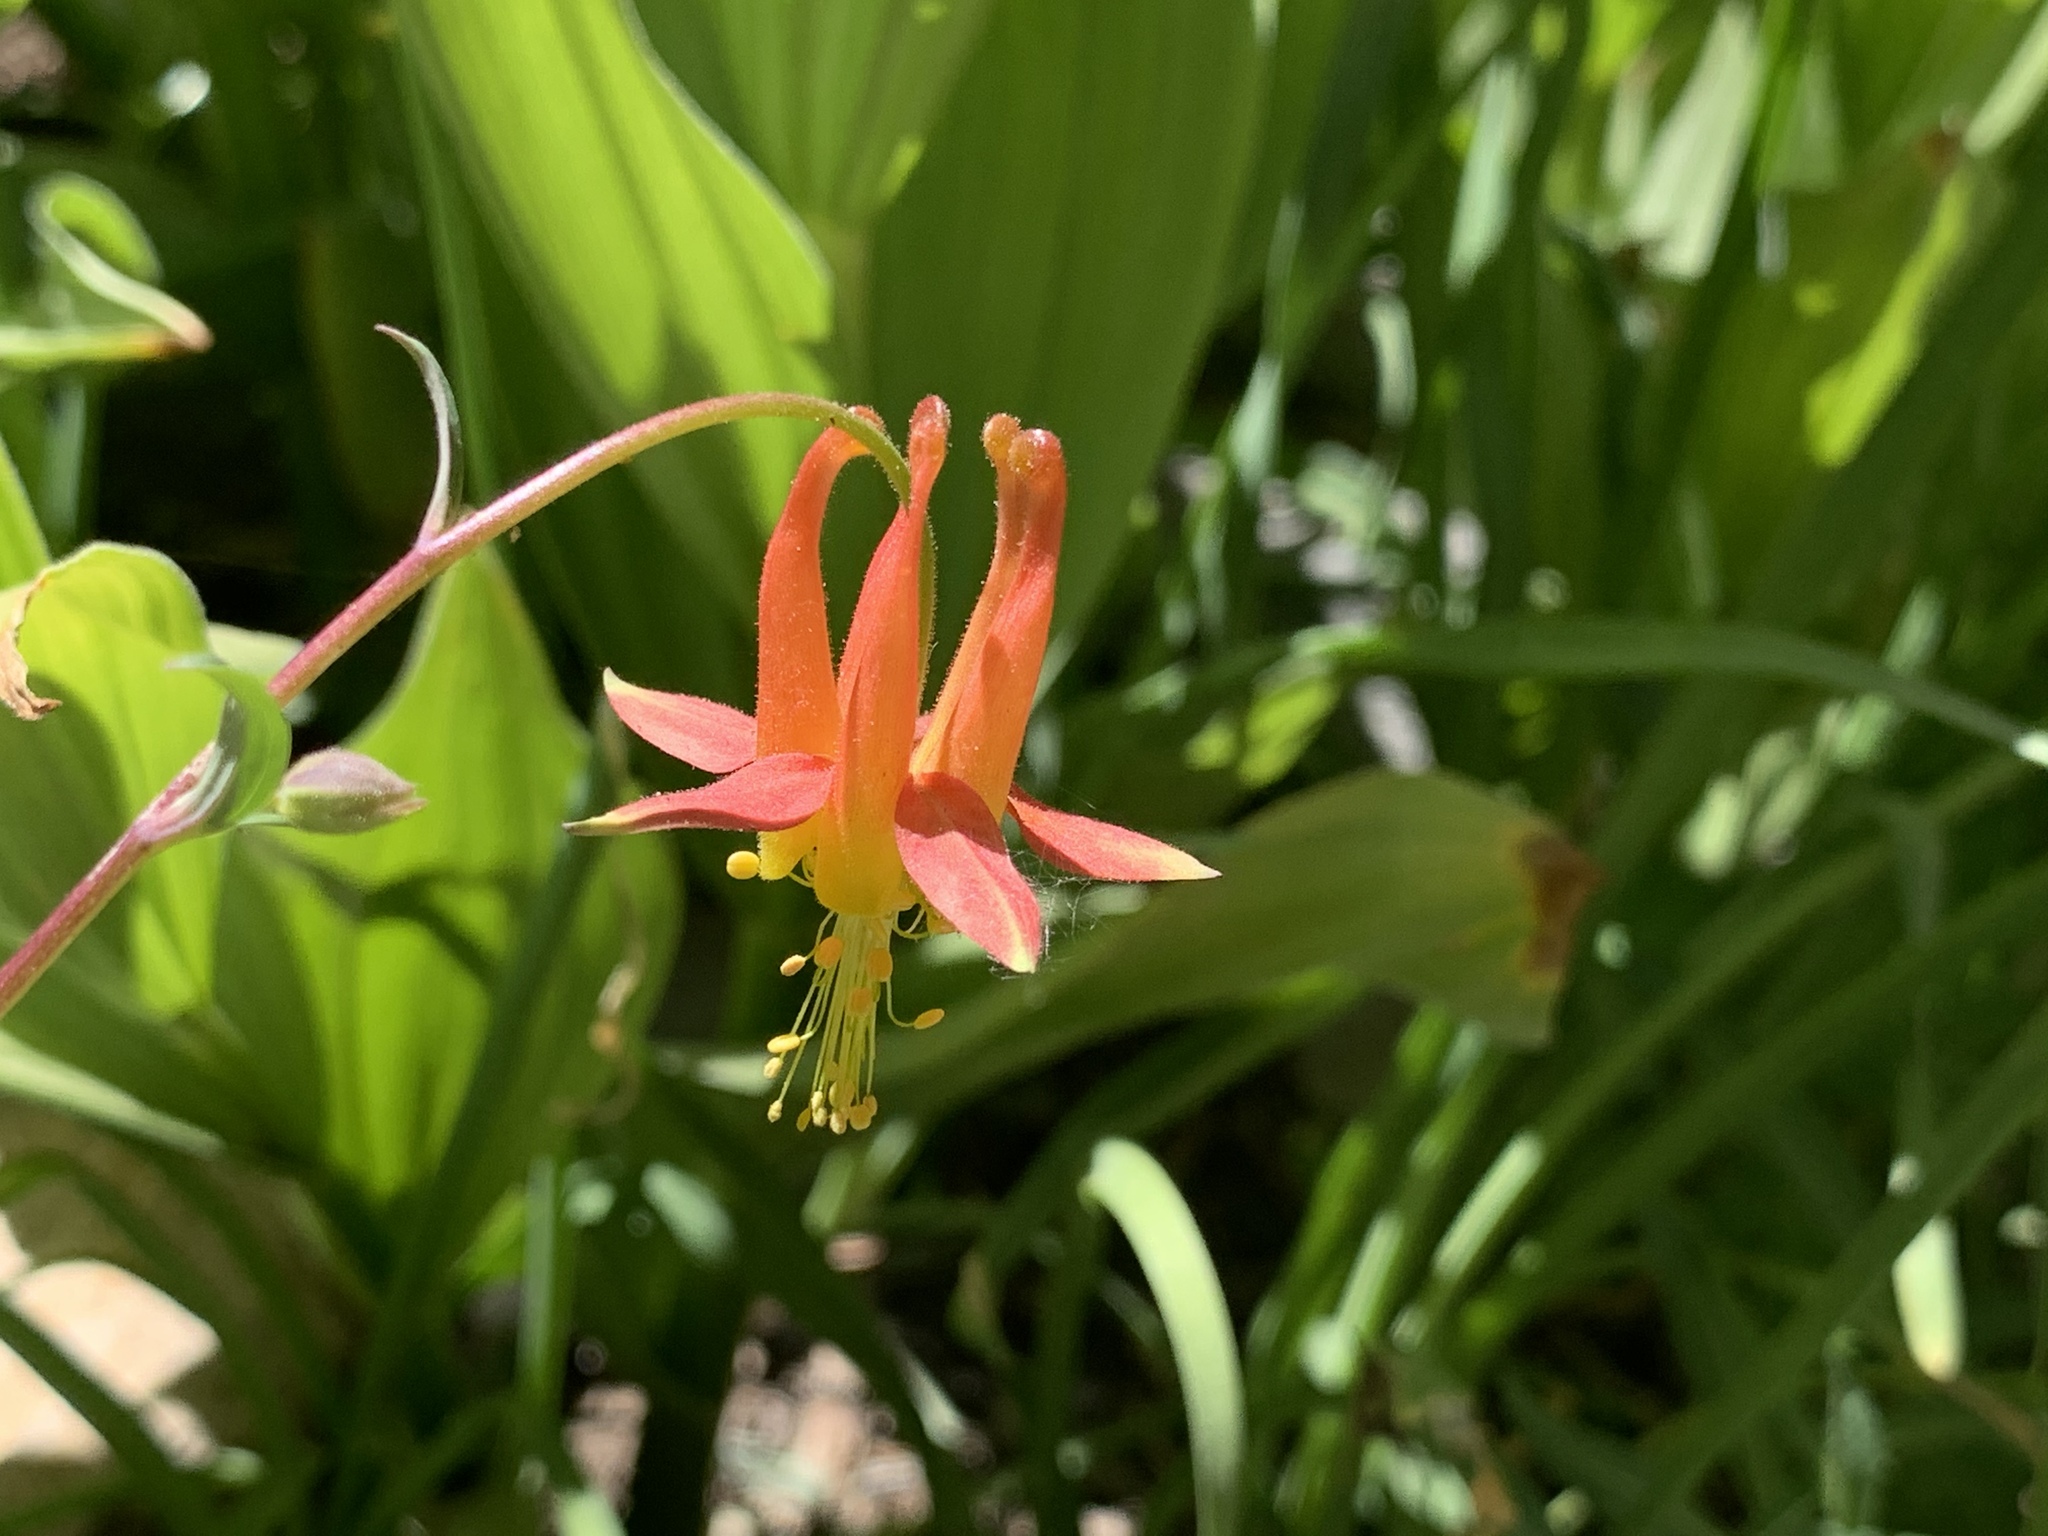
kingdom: Plantae
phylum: Tracheophyta
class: Magnoliopsida
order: Ranunculales
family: Ranunculaceae
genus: Aquilegia
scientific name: Aquilegia formosa
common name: Sitka columbine
